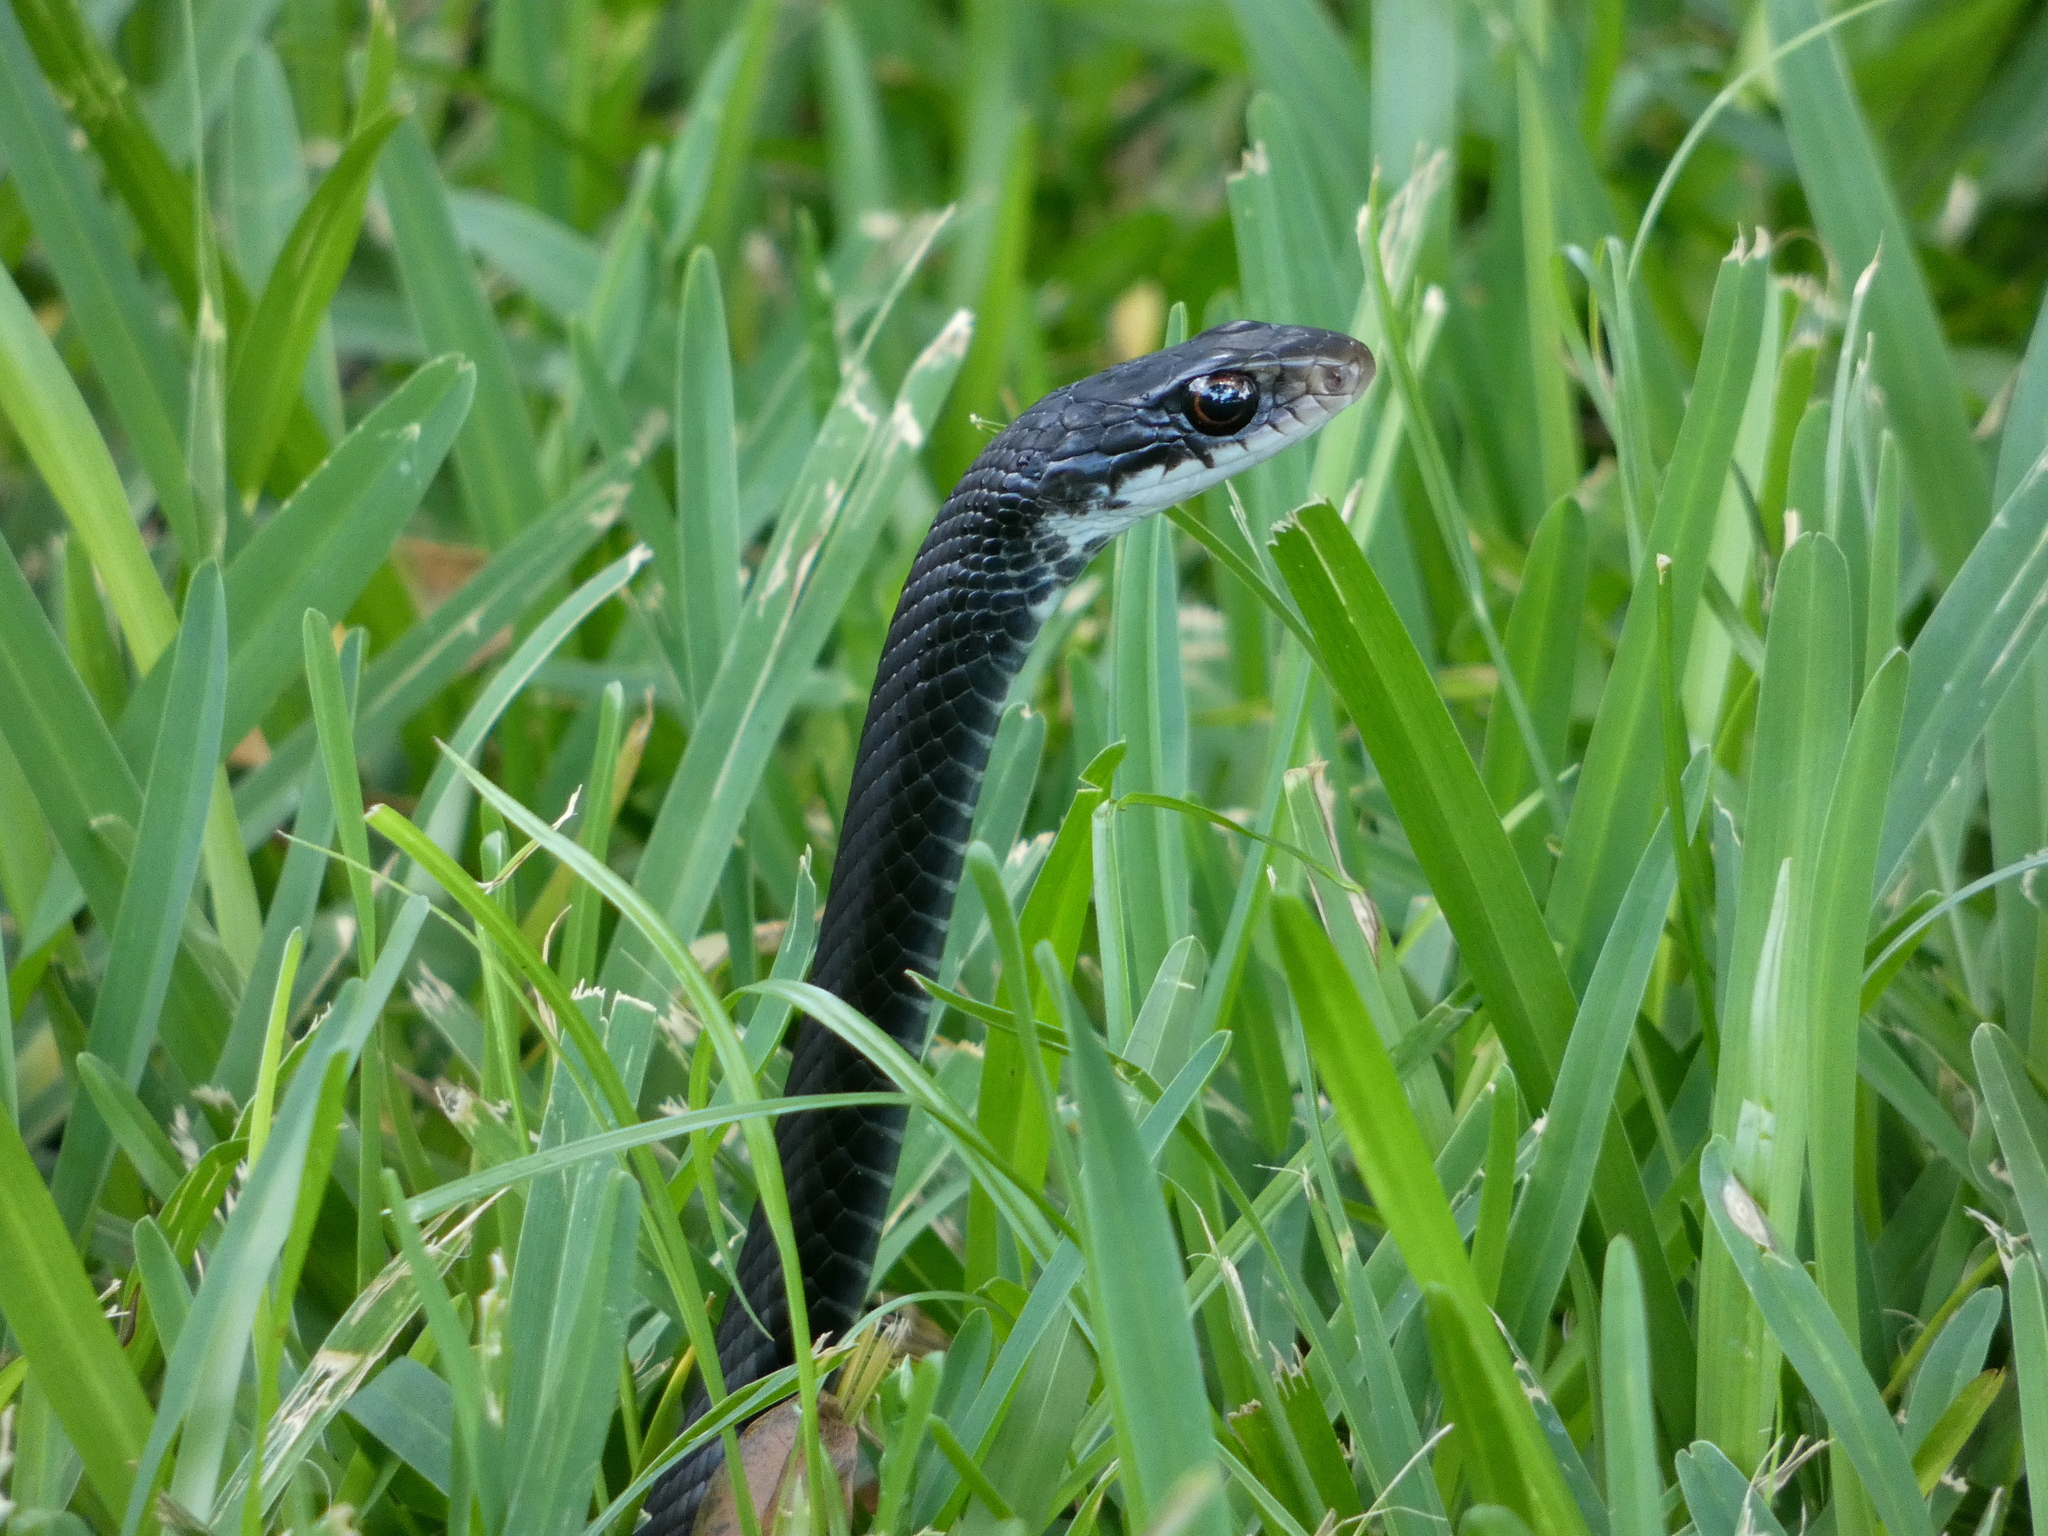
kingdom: Animalia
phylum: Chordata
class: Squamata
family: Colubridae
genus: Coluber
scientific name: Coluber constrictor
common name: Eastern racer
